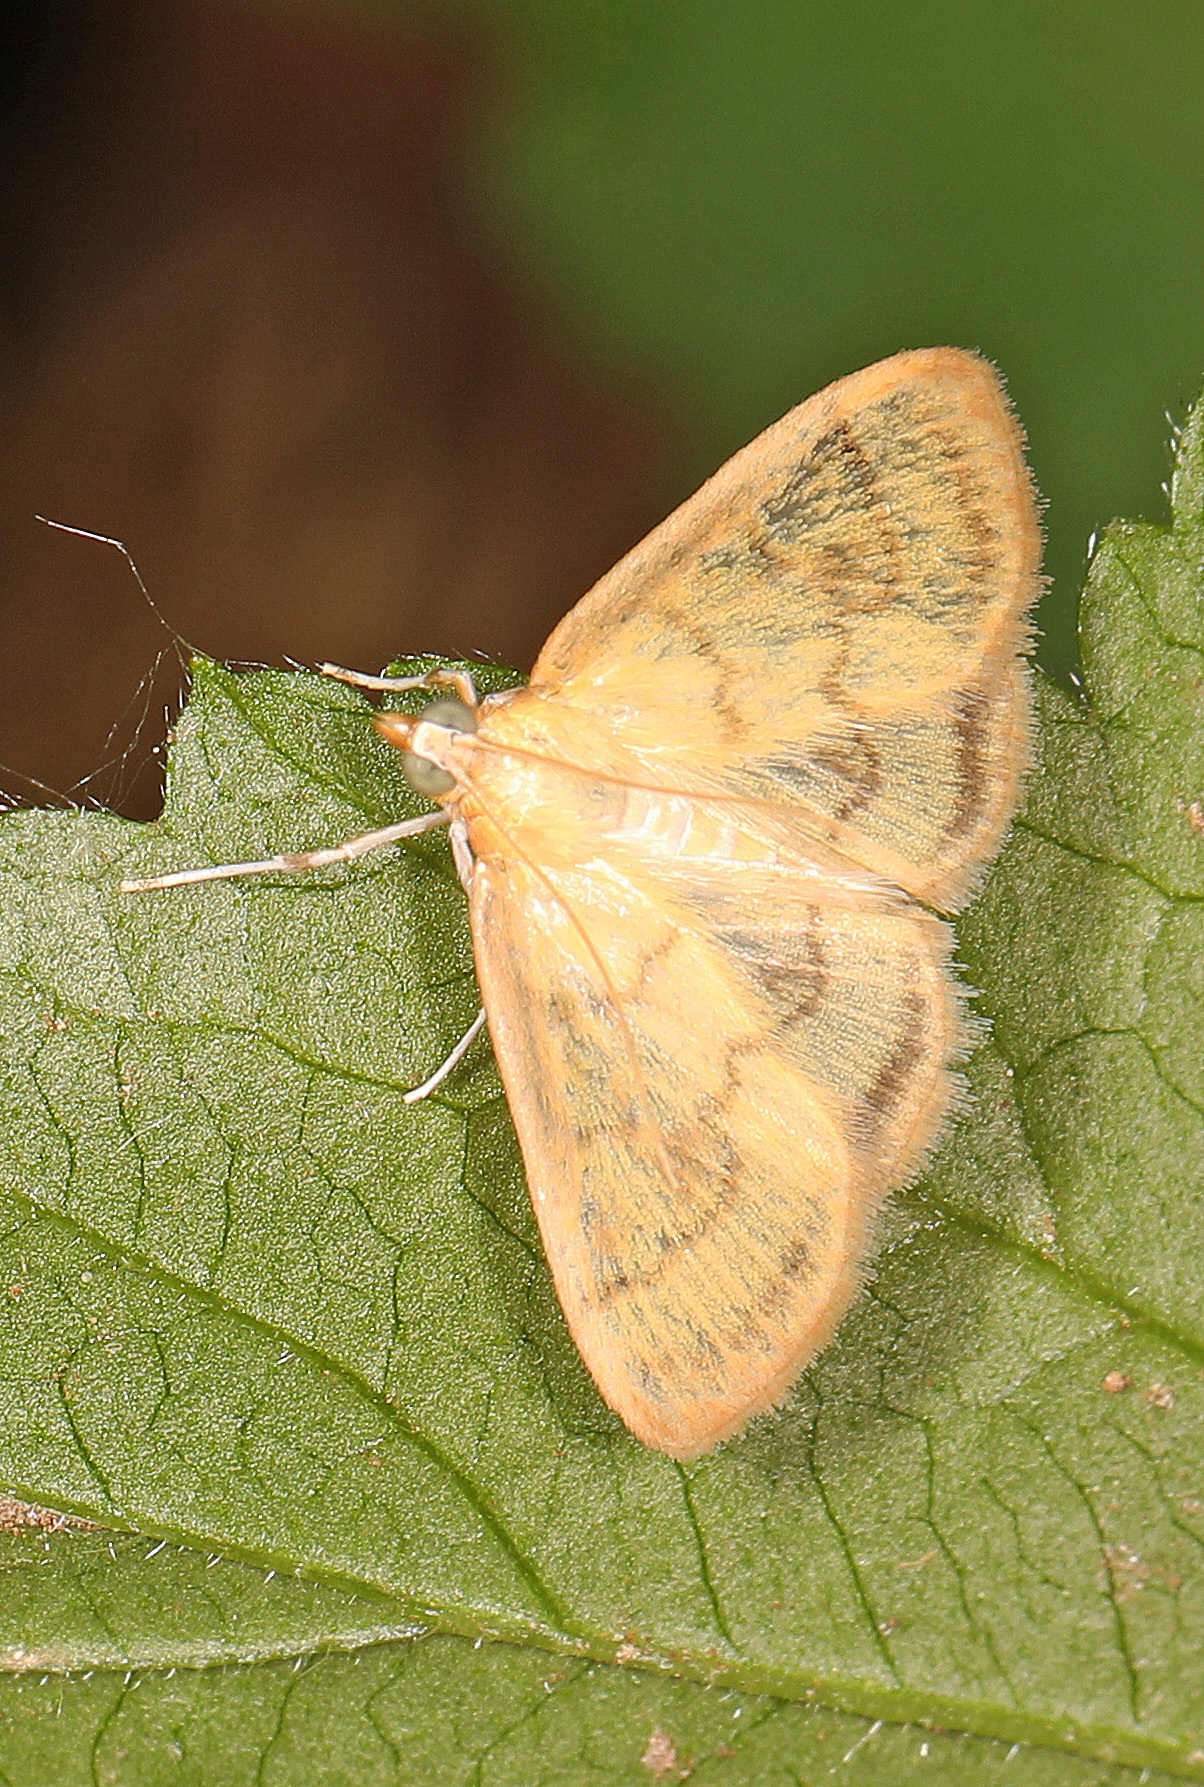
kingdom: Animalia
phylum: Arthropoda
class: Insecta
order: Lepidoptera
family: Crambidae
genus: Crocidophora
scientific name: Crocidophora tuberculalis
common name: Pale-winged crocidiphora moth
